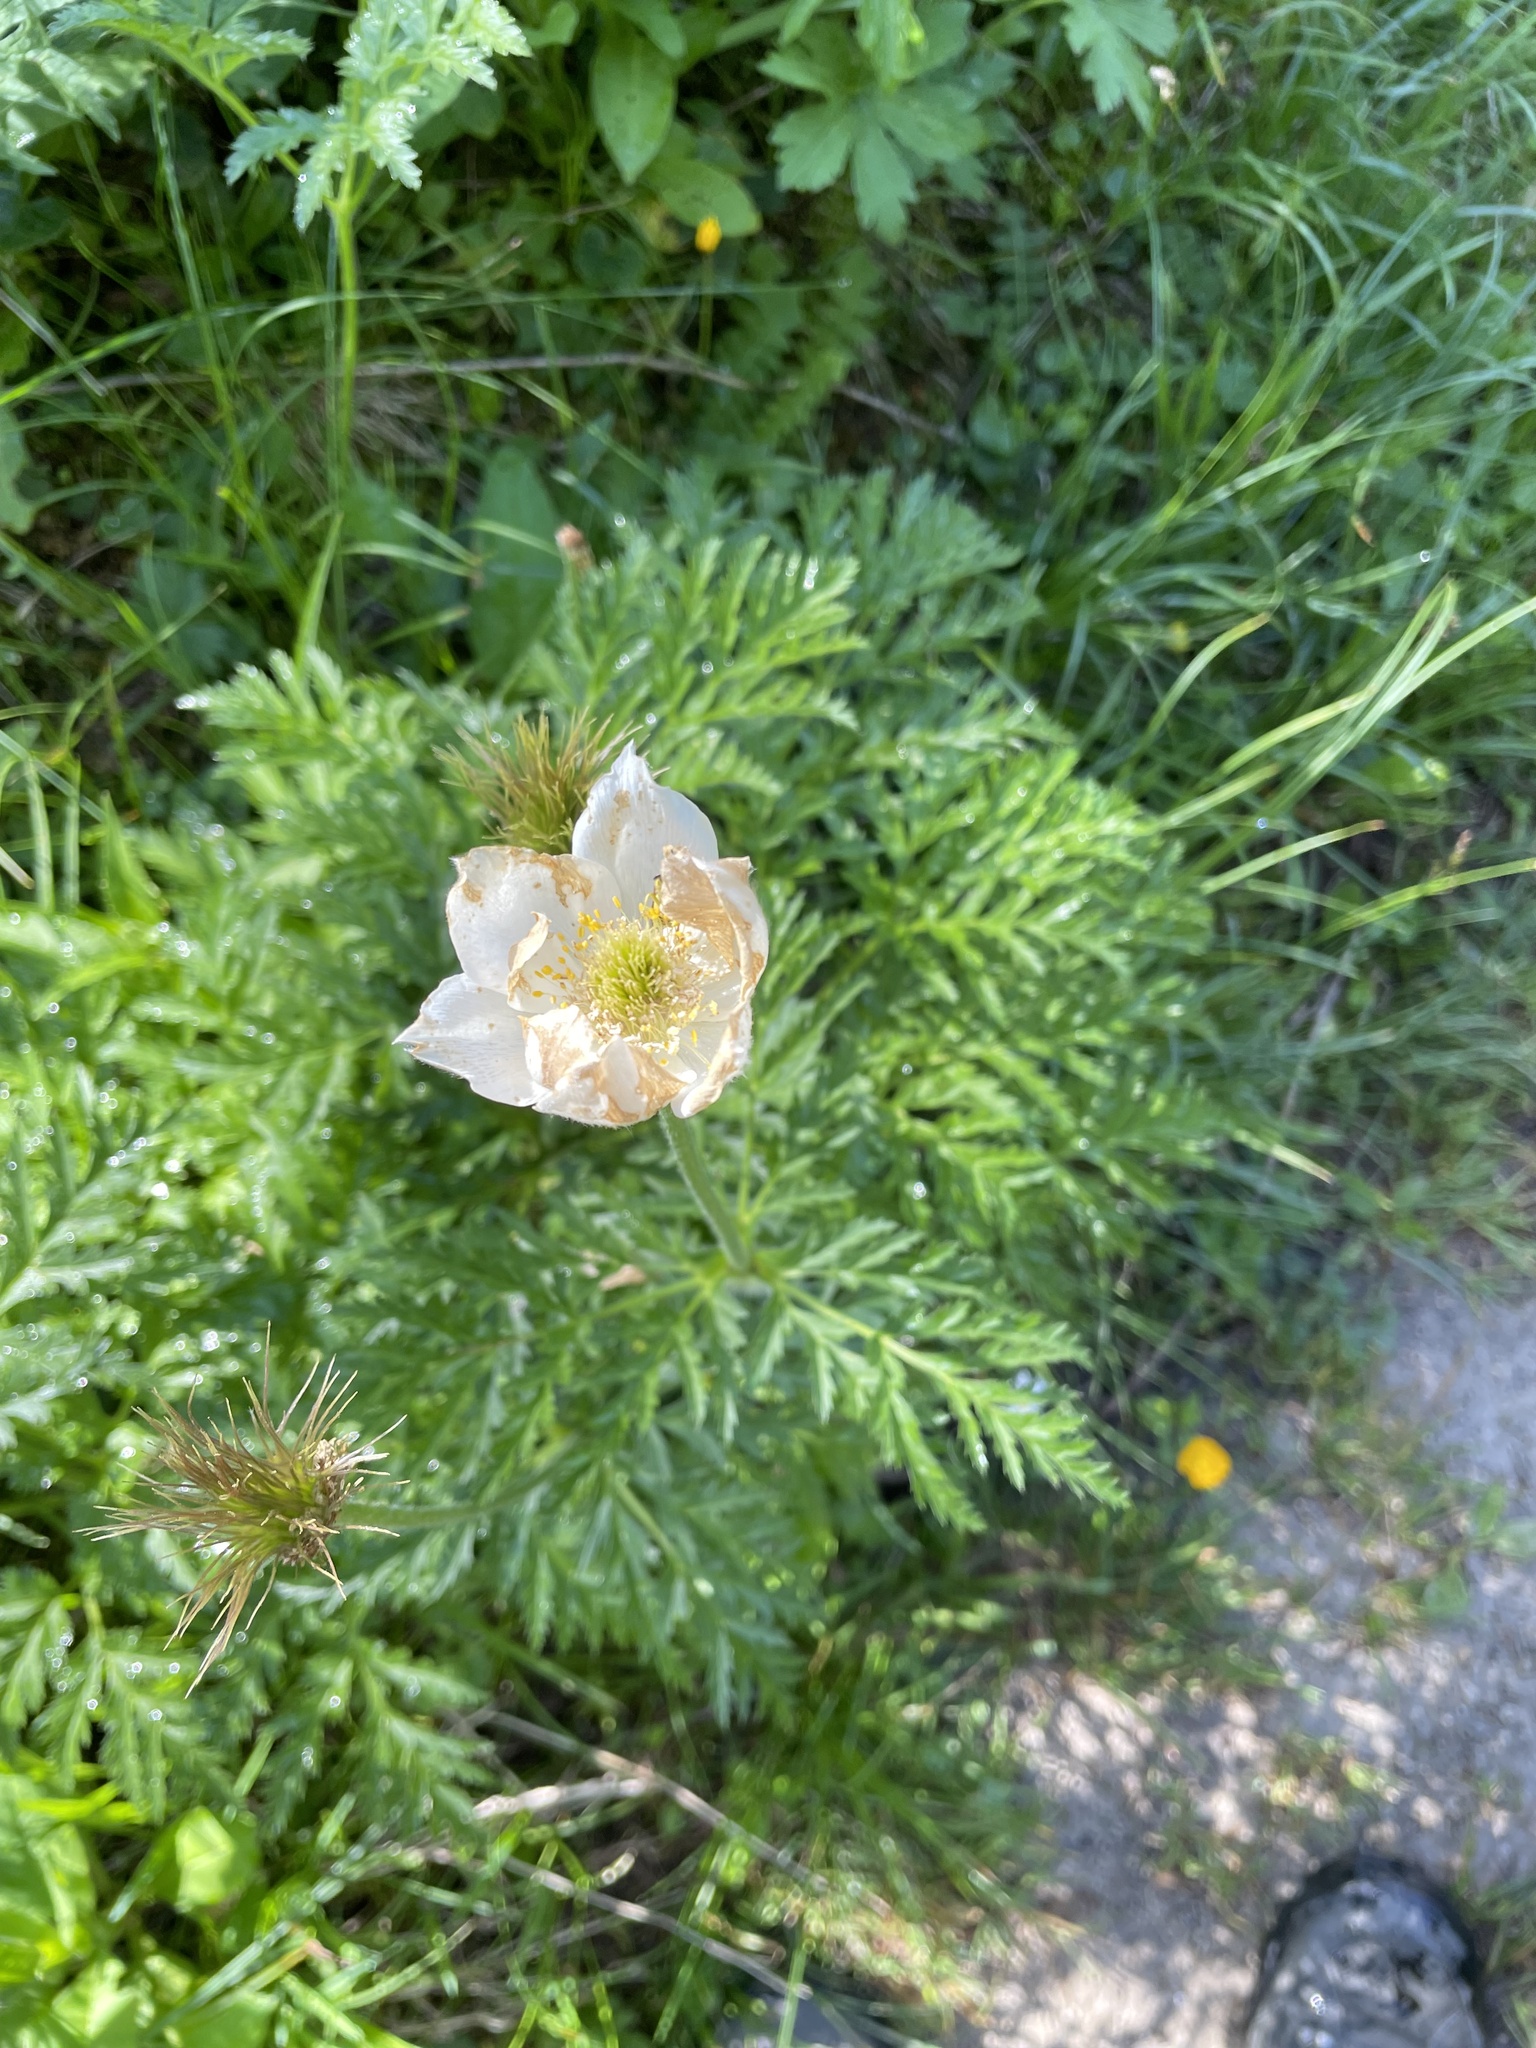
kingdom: Plantae
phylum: Tracheophyta
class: Magnoliopsida
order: Ranunculales
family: Ranunculaceae
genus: Pulsatilla
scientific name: Pulsatilla alpina
